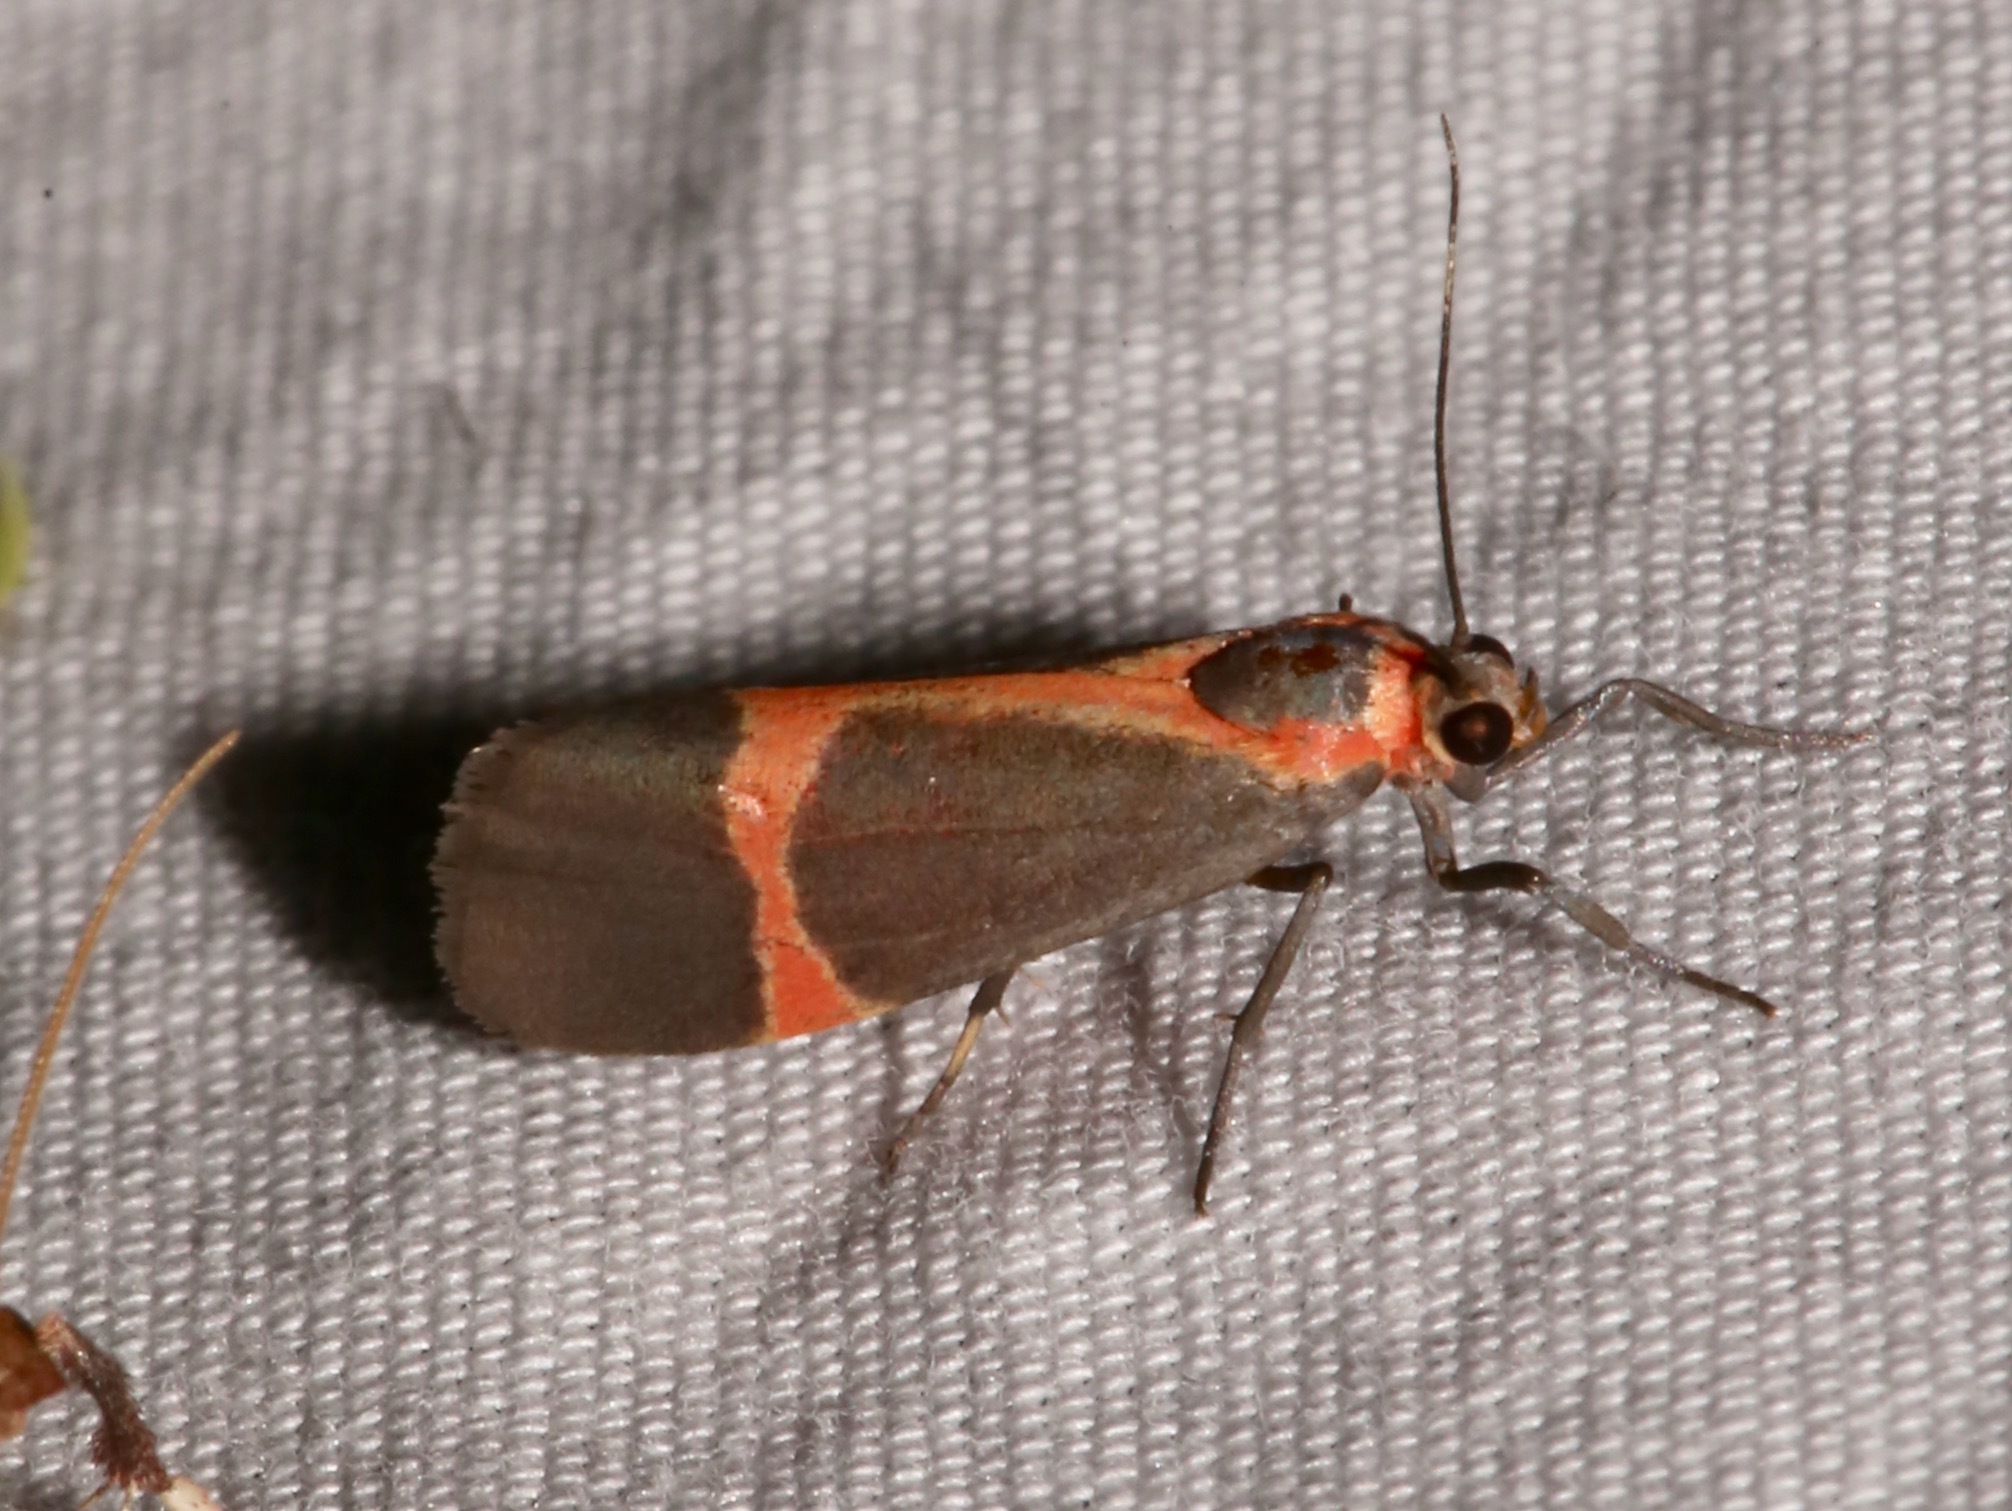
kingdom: Animalia
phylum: Arthropoda
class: Insecta
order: Lepidoptera
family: Erebidae
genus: Cisthene
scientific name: Cisthene martini
